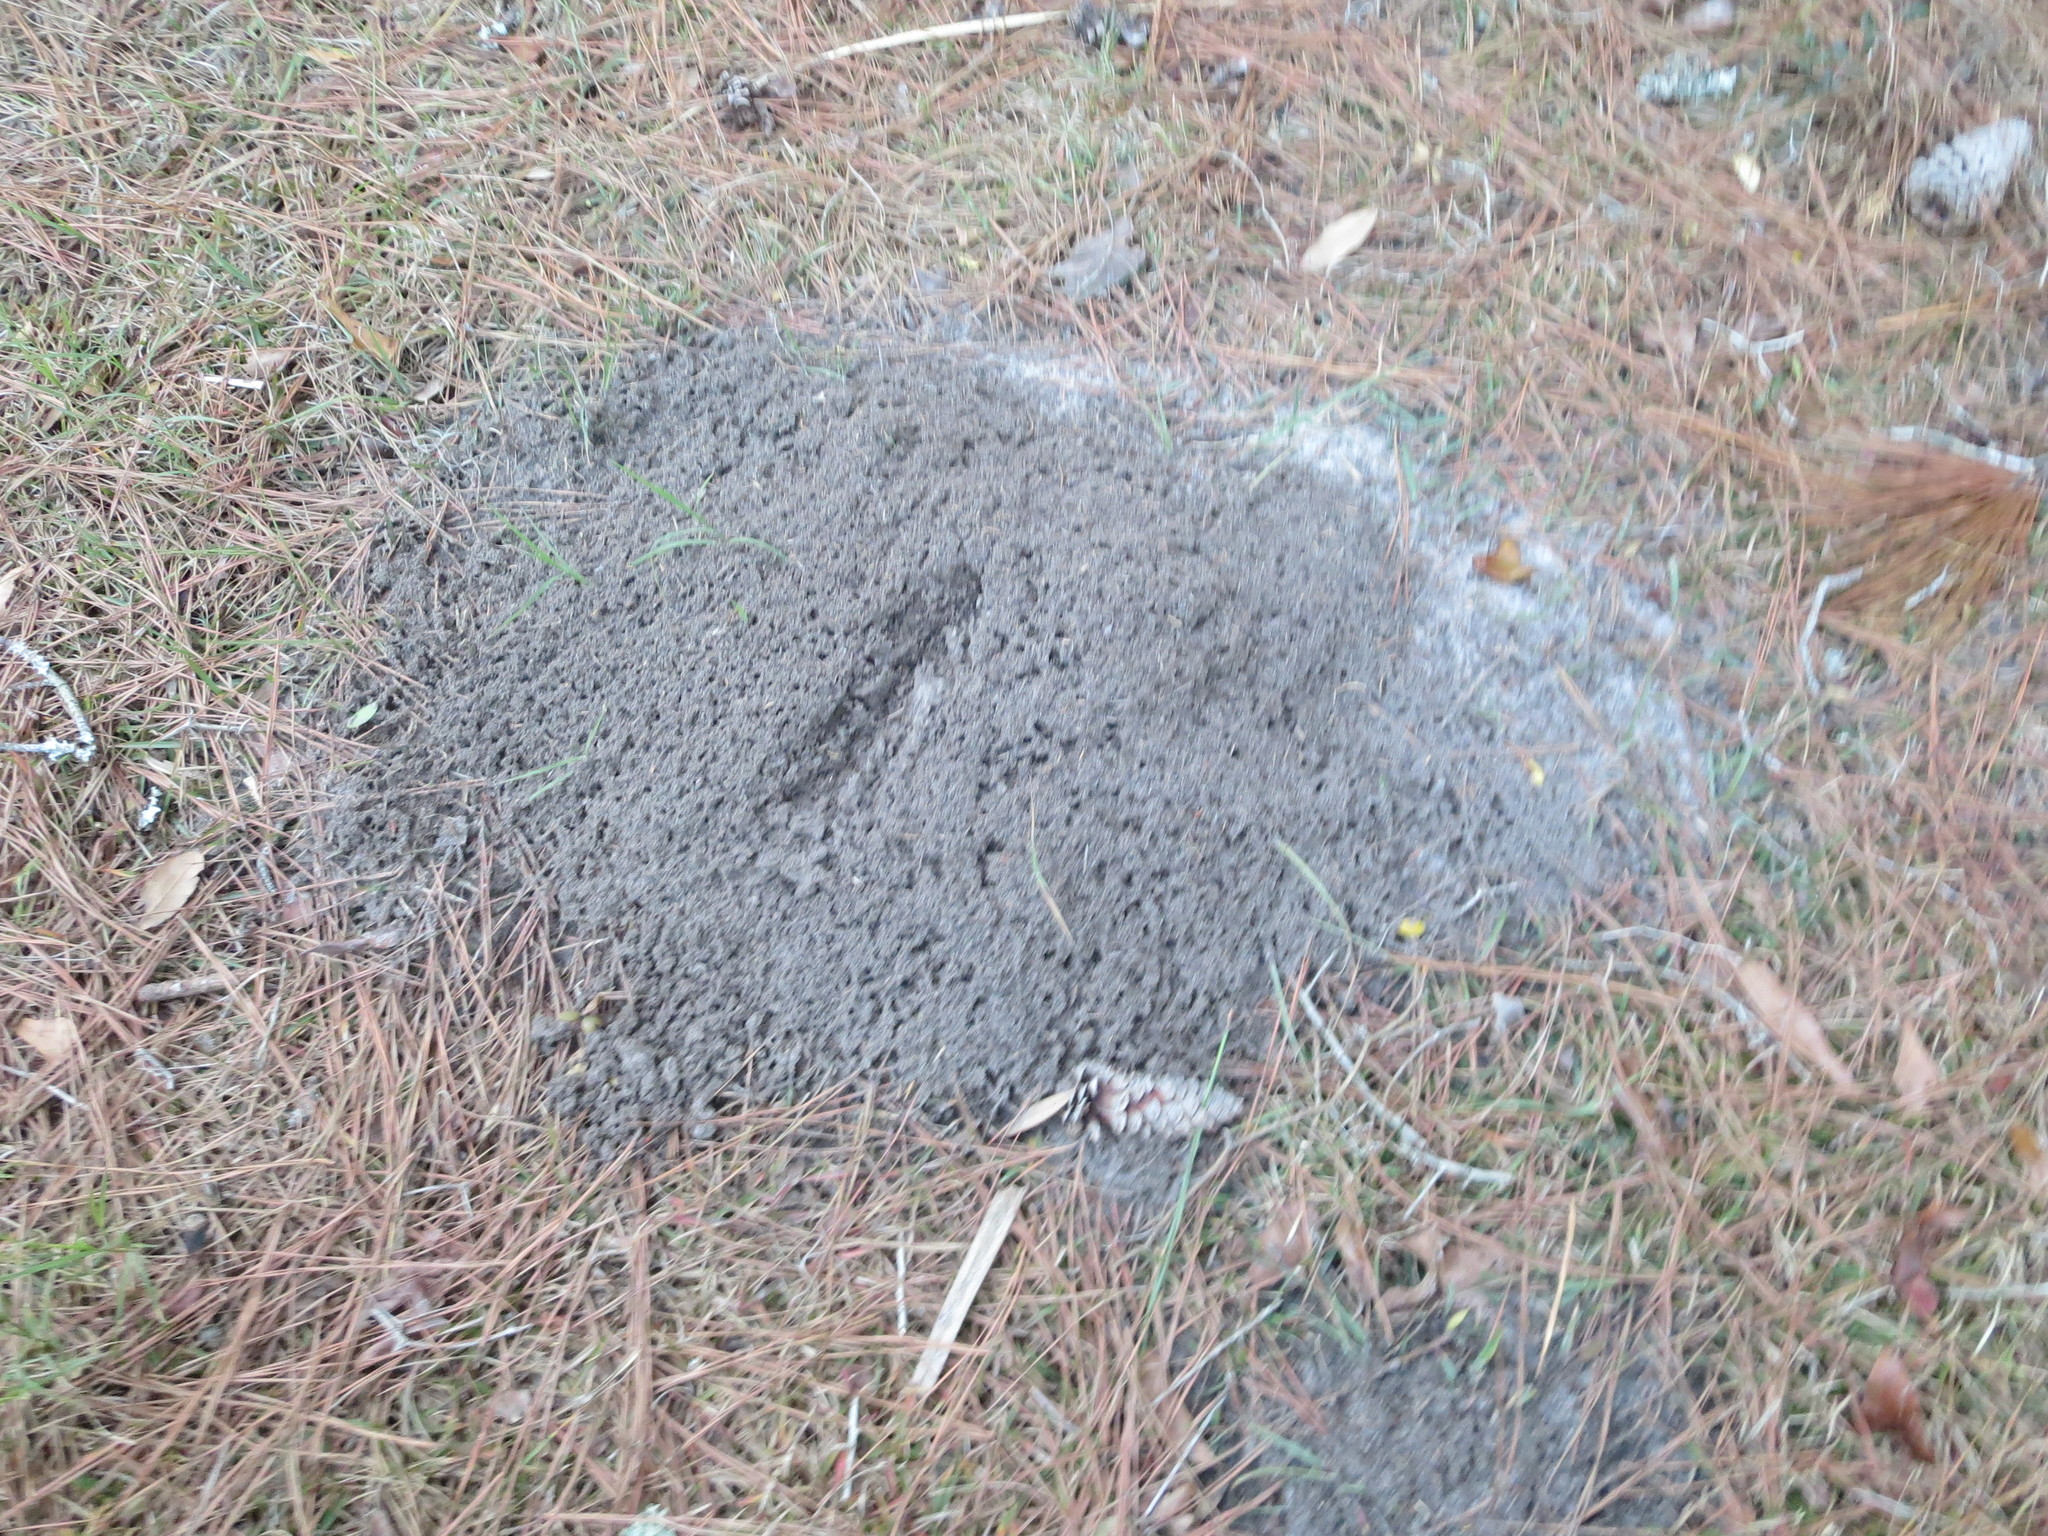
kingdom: Animalia
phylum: Arthropoda
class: Insecta
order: Hymenoptera
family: Formicidae
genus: Solenopsis
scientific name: Solenopsis invicta
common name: Red imported fire ant
